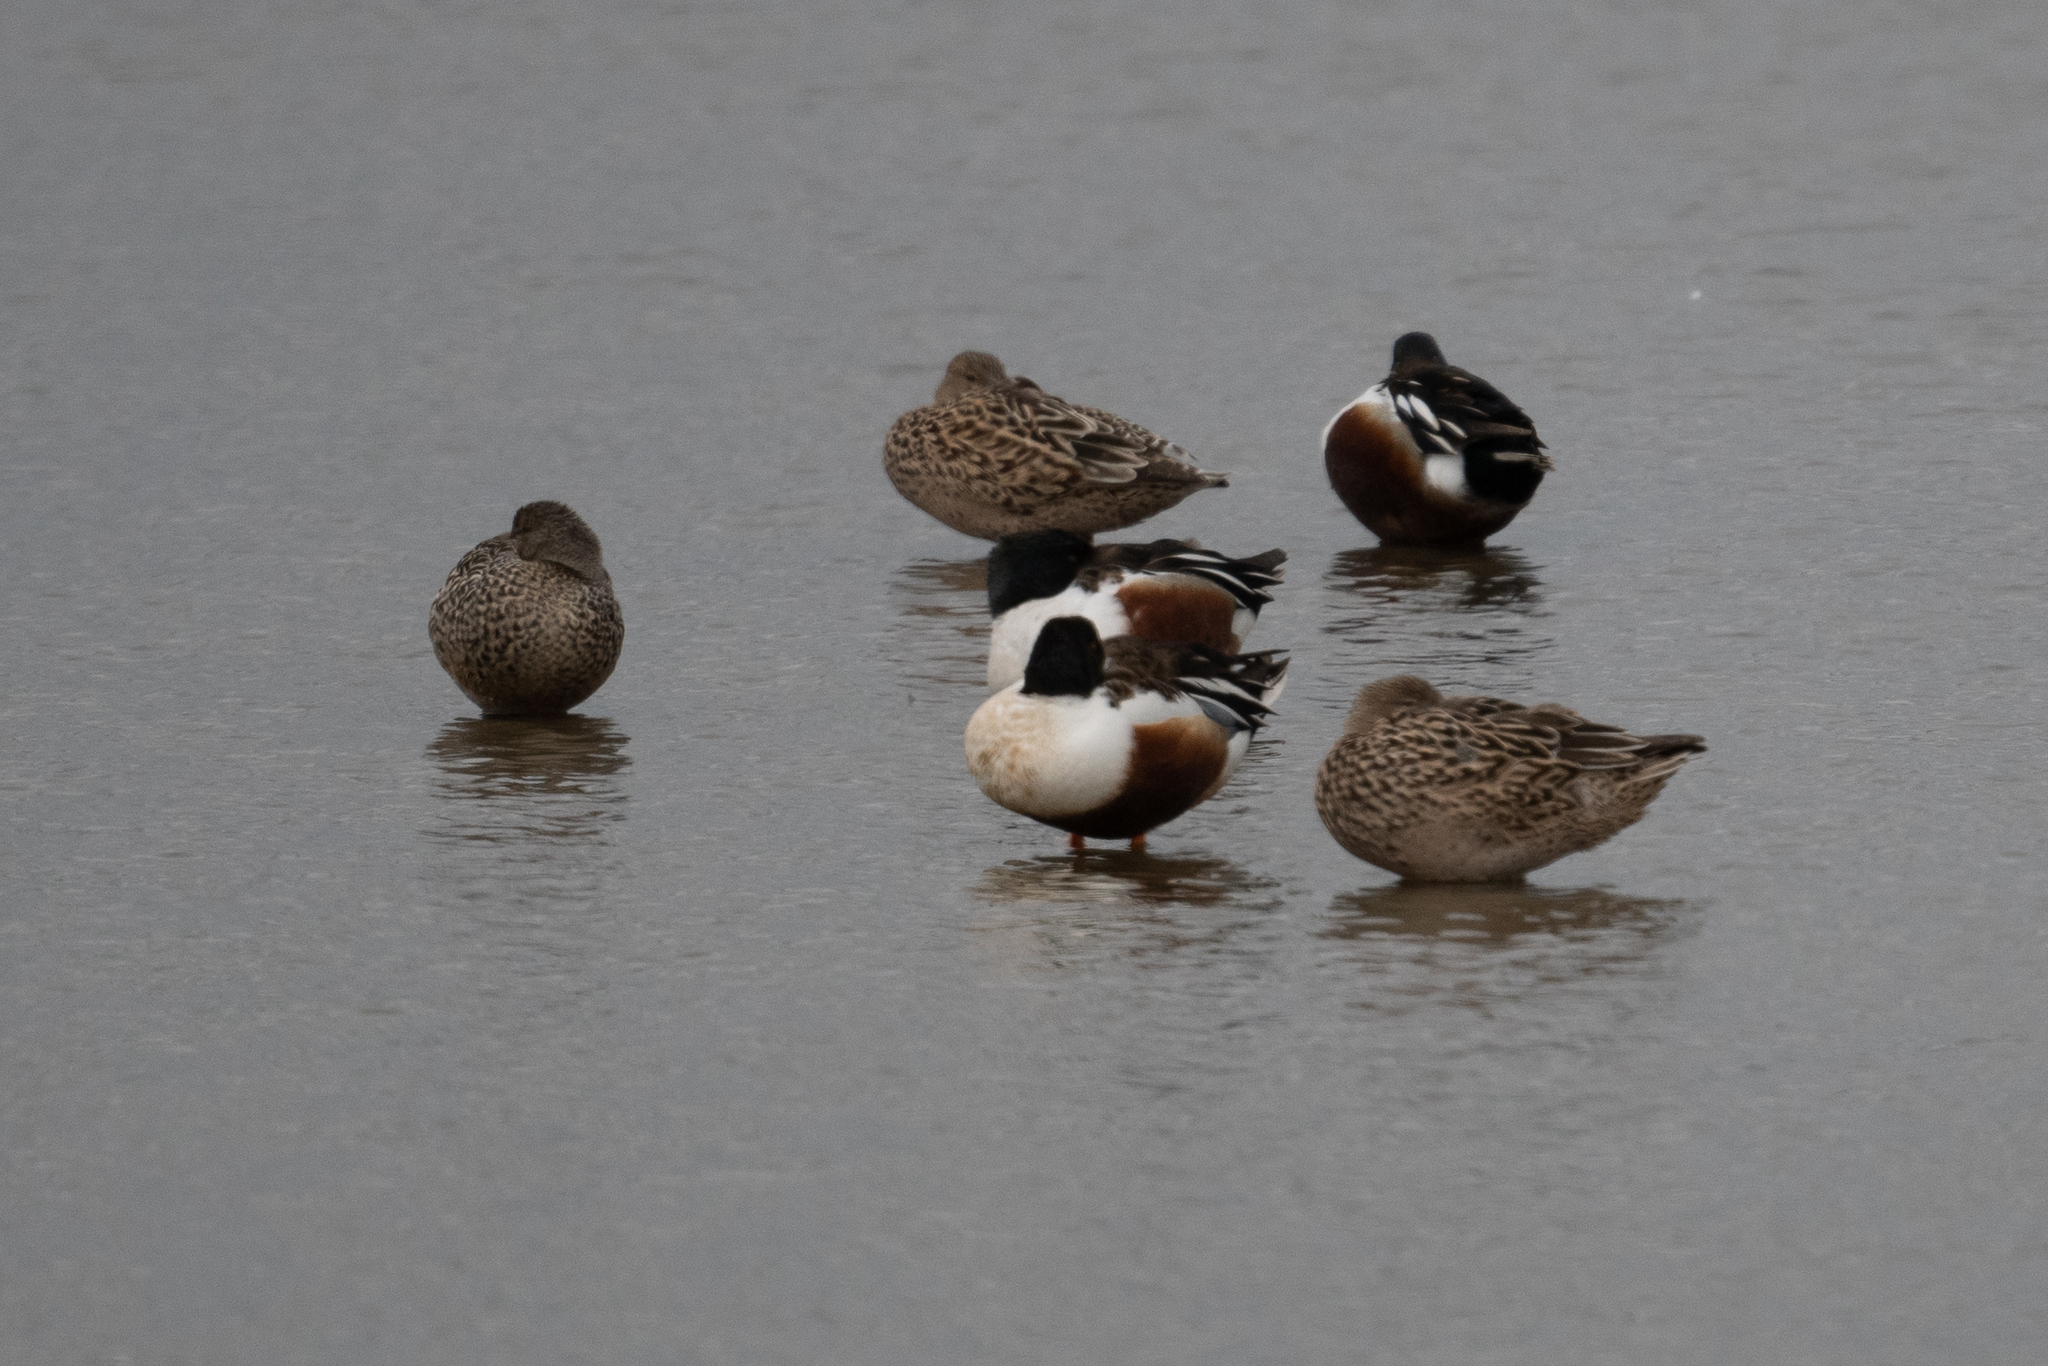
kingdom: Animalia
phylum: Chordata
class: Aves
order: Anseriformes
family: Anatidae
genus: Spatula
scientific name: Spatula clypeata
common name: Northern shoveler
